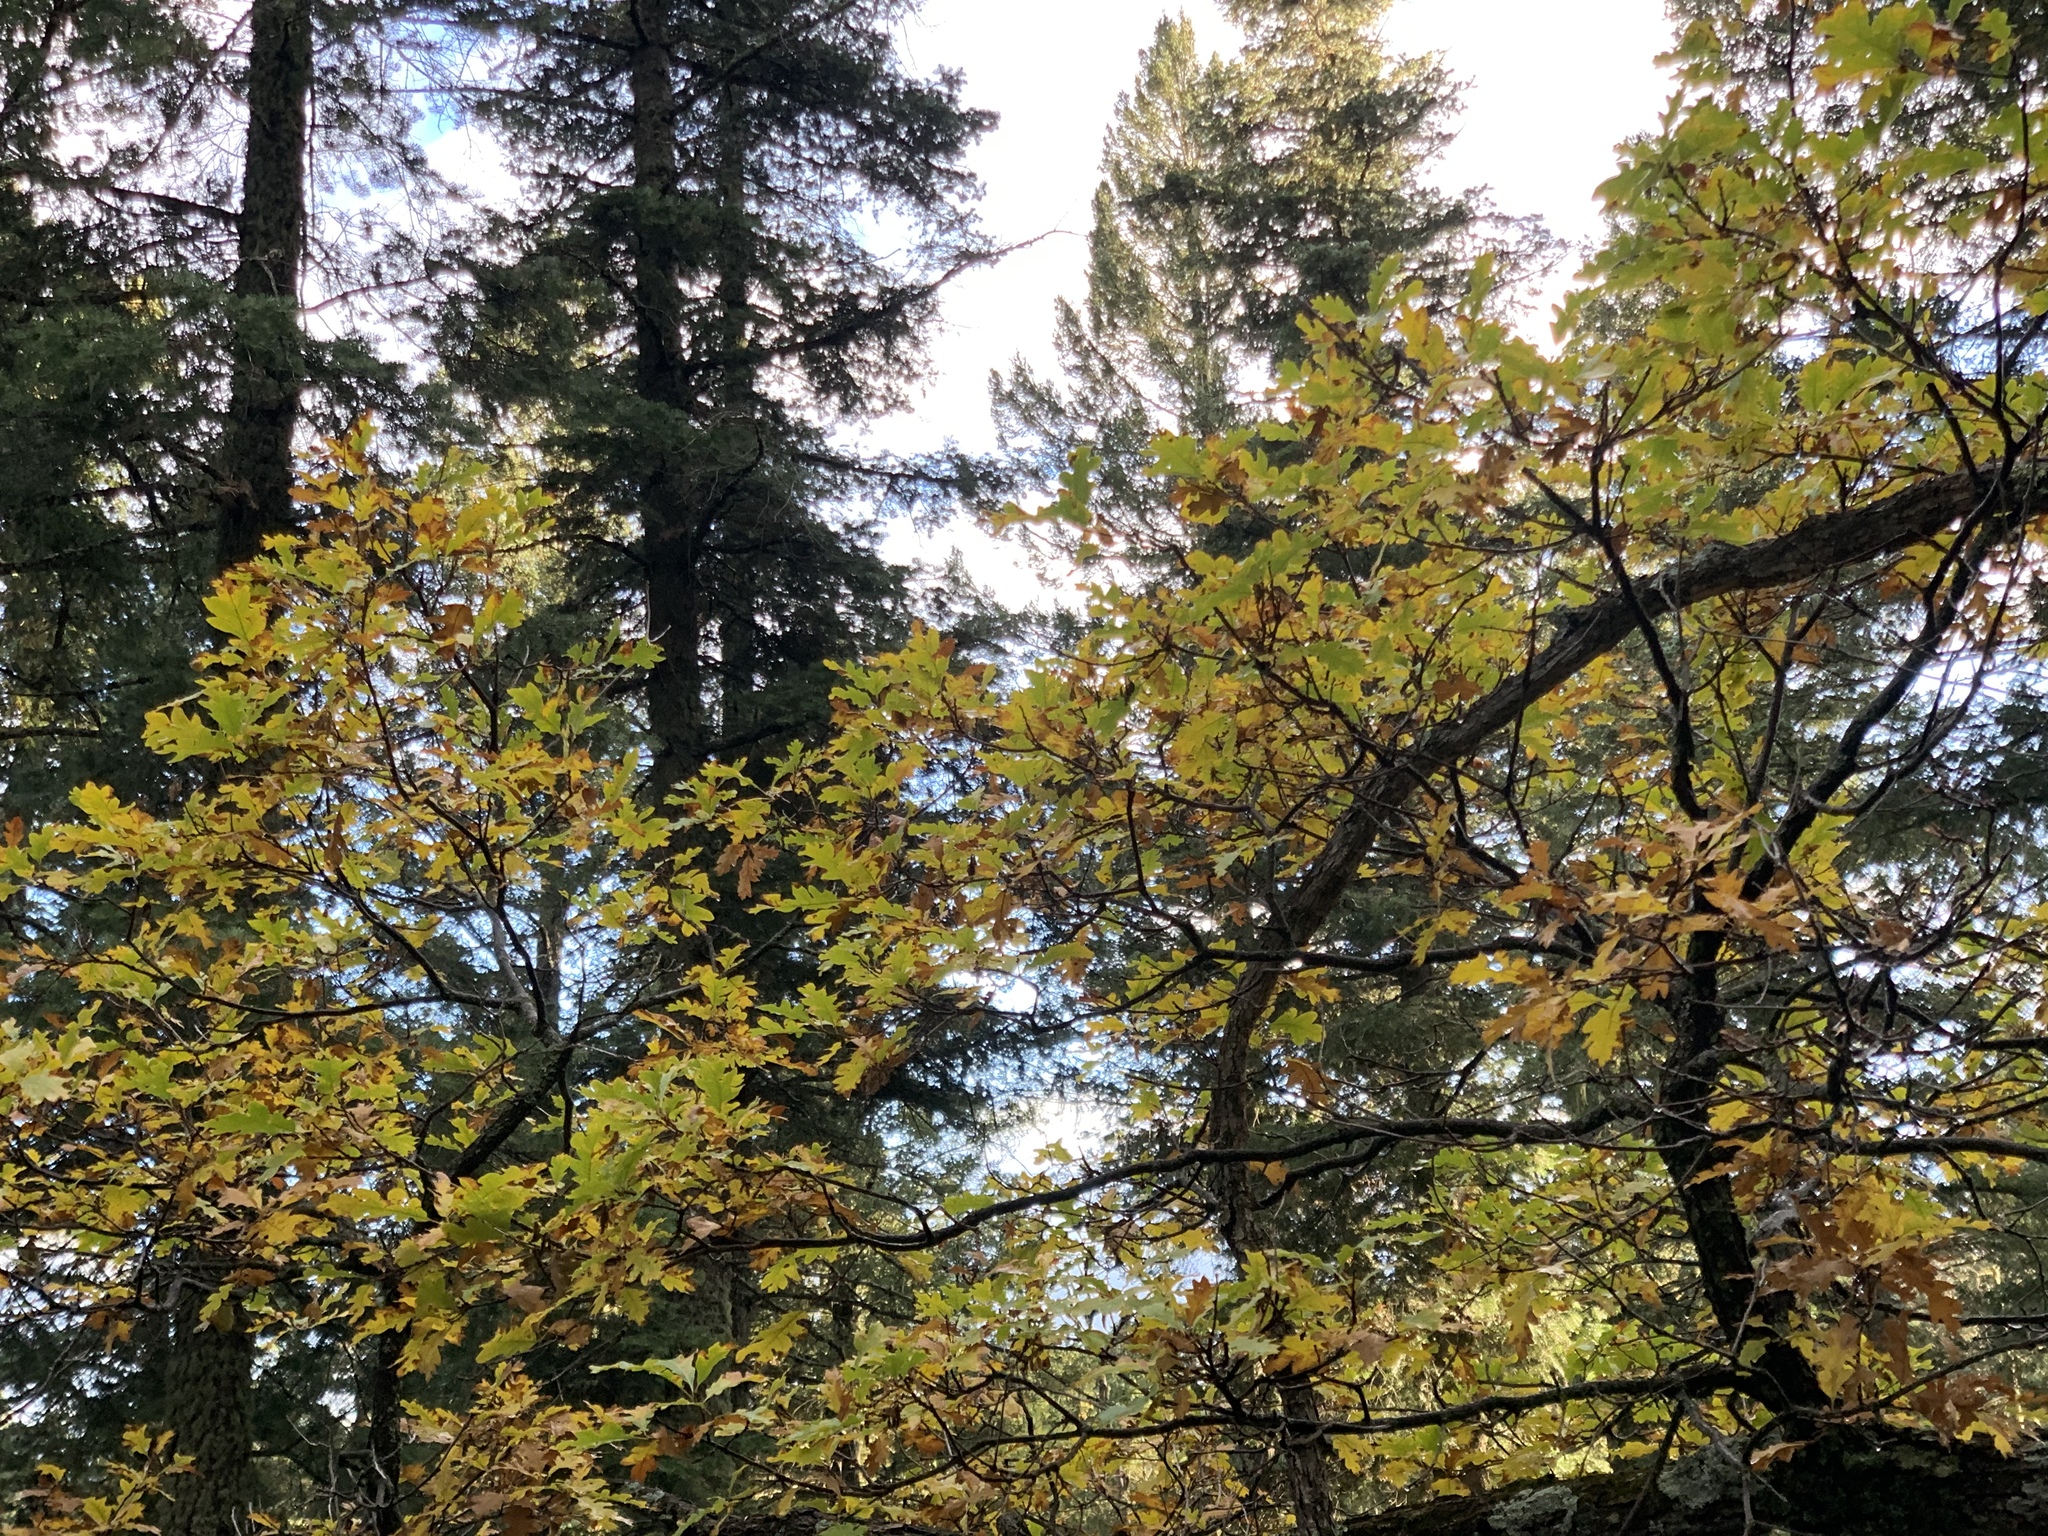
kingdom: Plantae
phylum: Tracheophyta
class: Magnoliopsida
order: Fagales
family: Fagaceae
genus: Quercus
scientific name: Quercus gambelii
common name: Gambel oak
